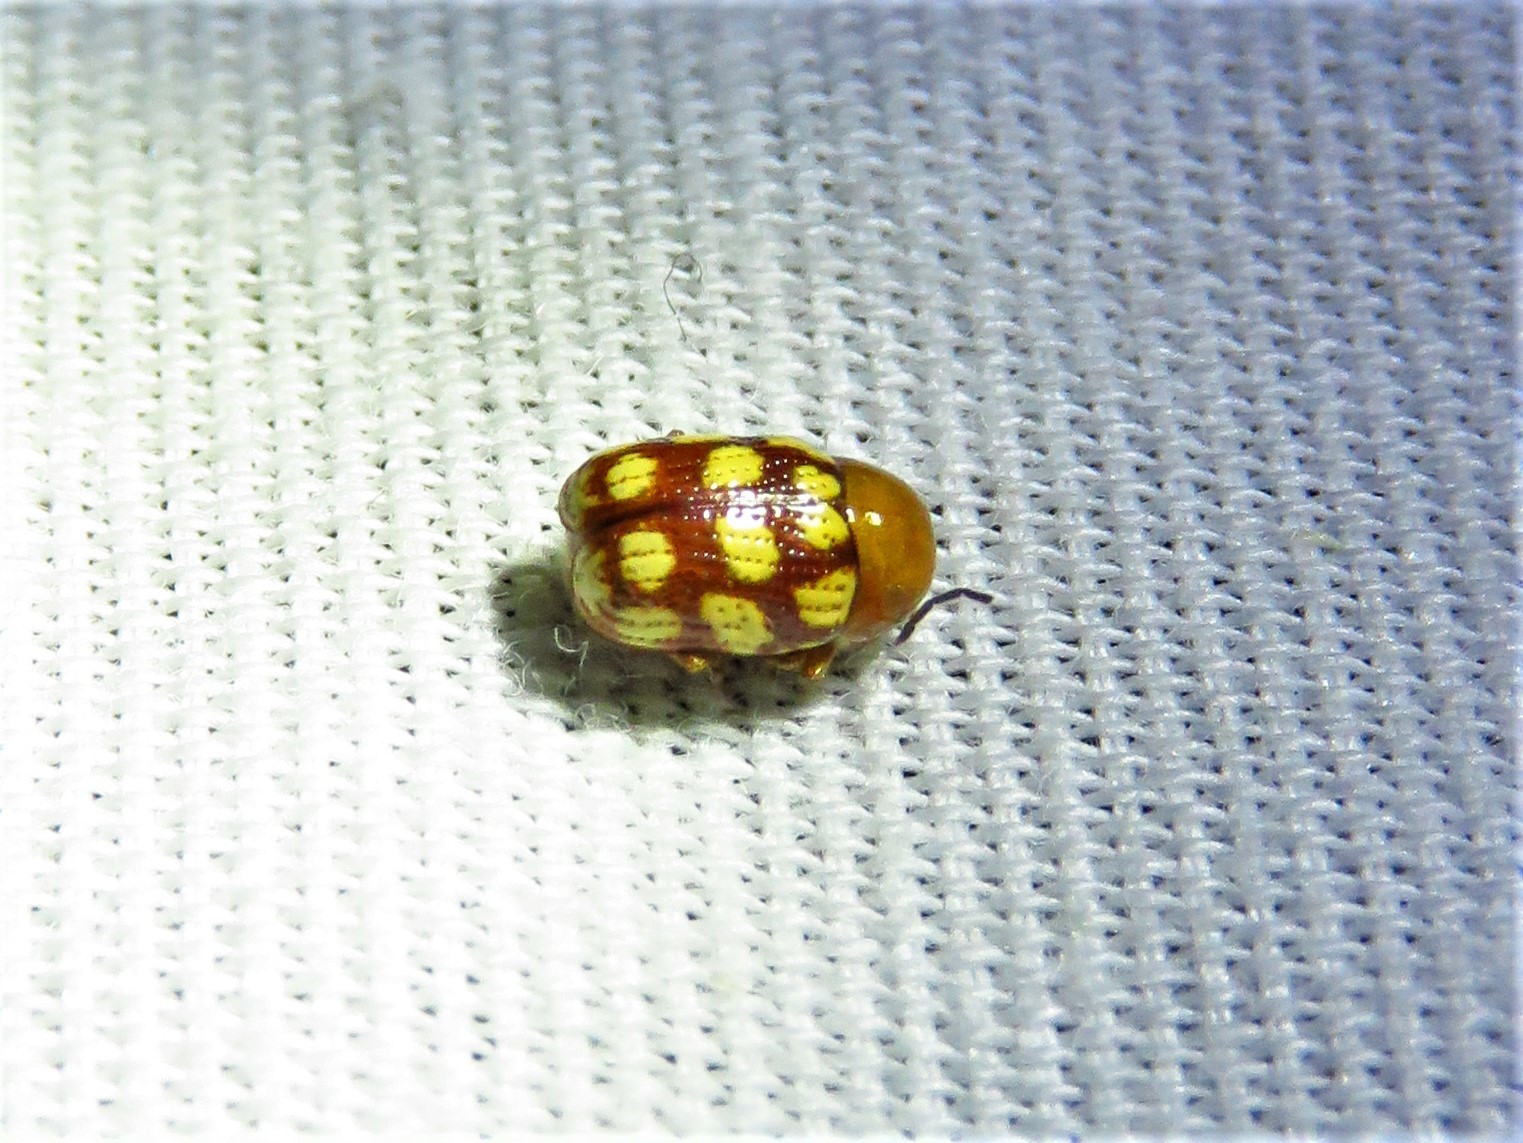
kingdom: Animalia
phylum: Arthropoda
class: Insecta
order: Coleoptera
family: Chrysomelidae
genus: Cryptocephalus
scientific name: Cryptocephalus guttulatus
